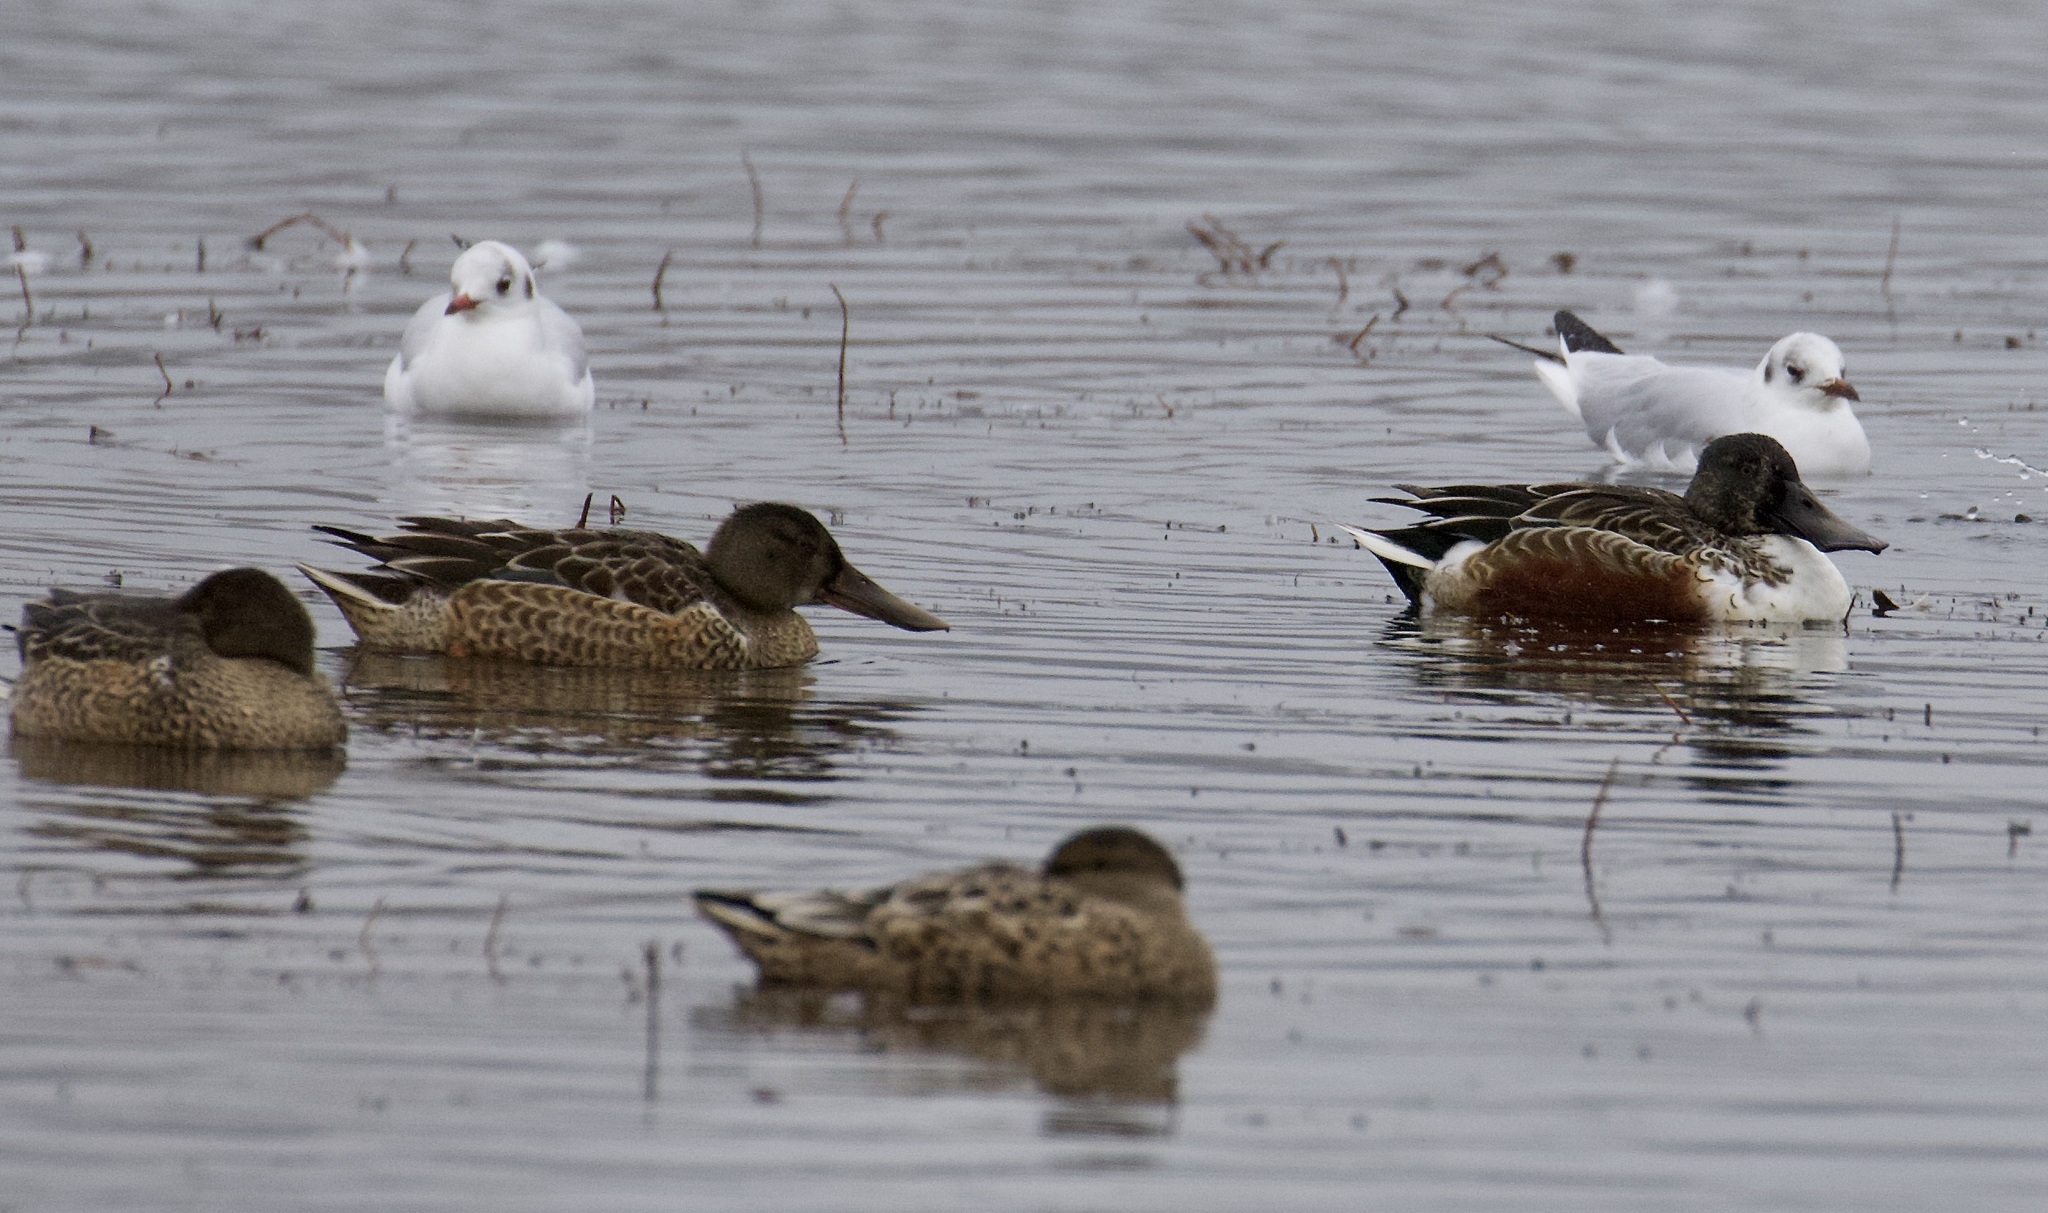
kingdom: Animalia
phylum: Chordata
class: Aves
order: Anseriformes
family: Anatidae
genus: Spatula
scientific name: Spatula clypeata
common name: Northern shoveler
